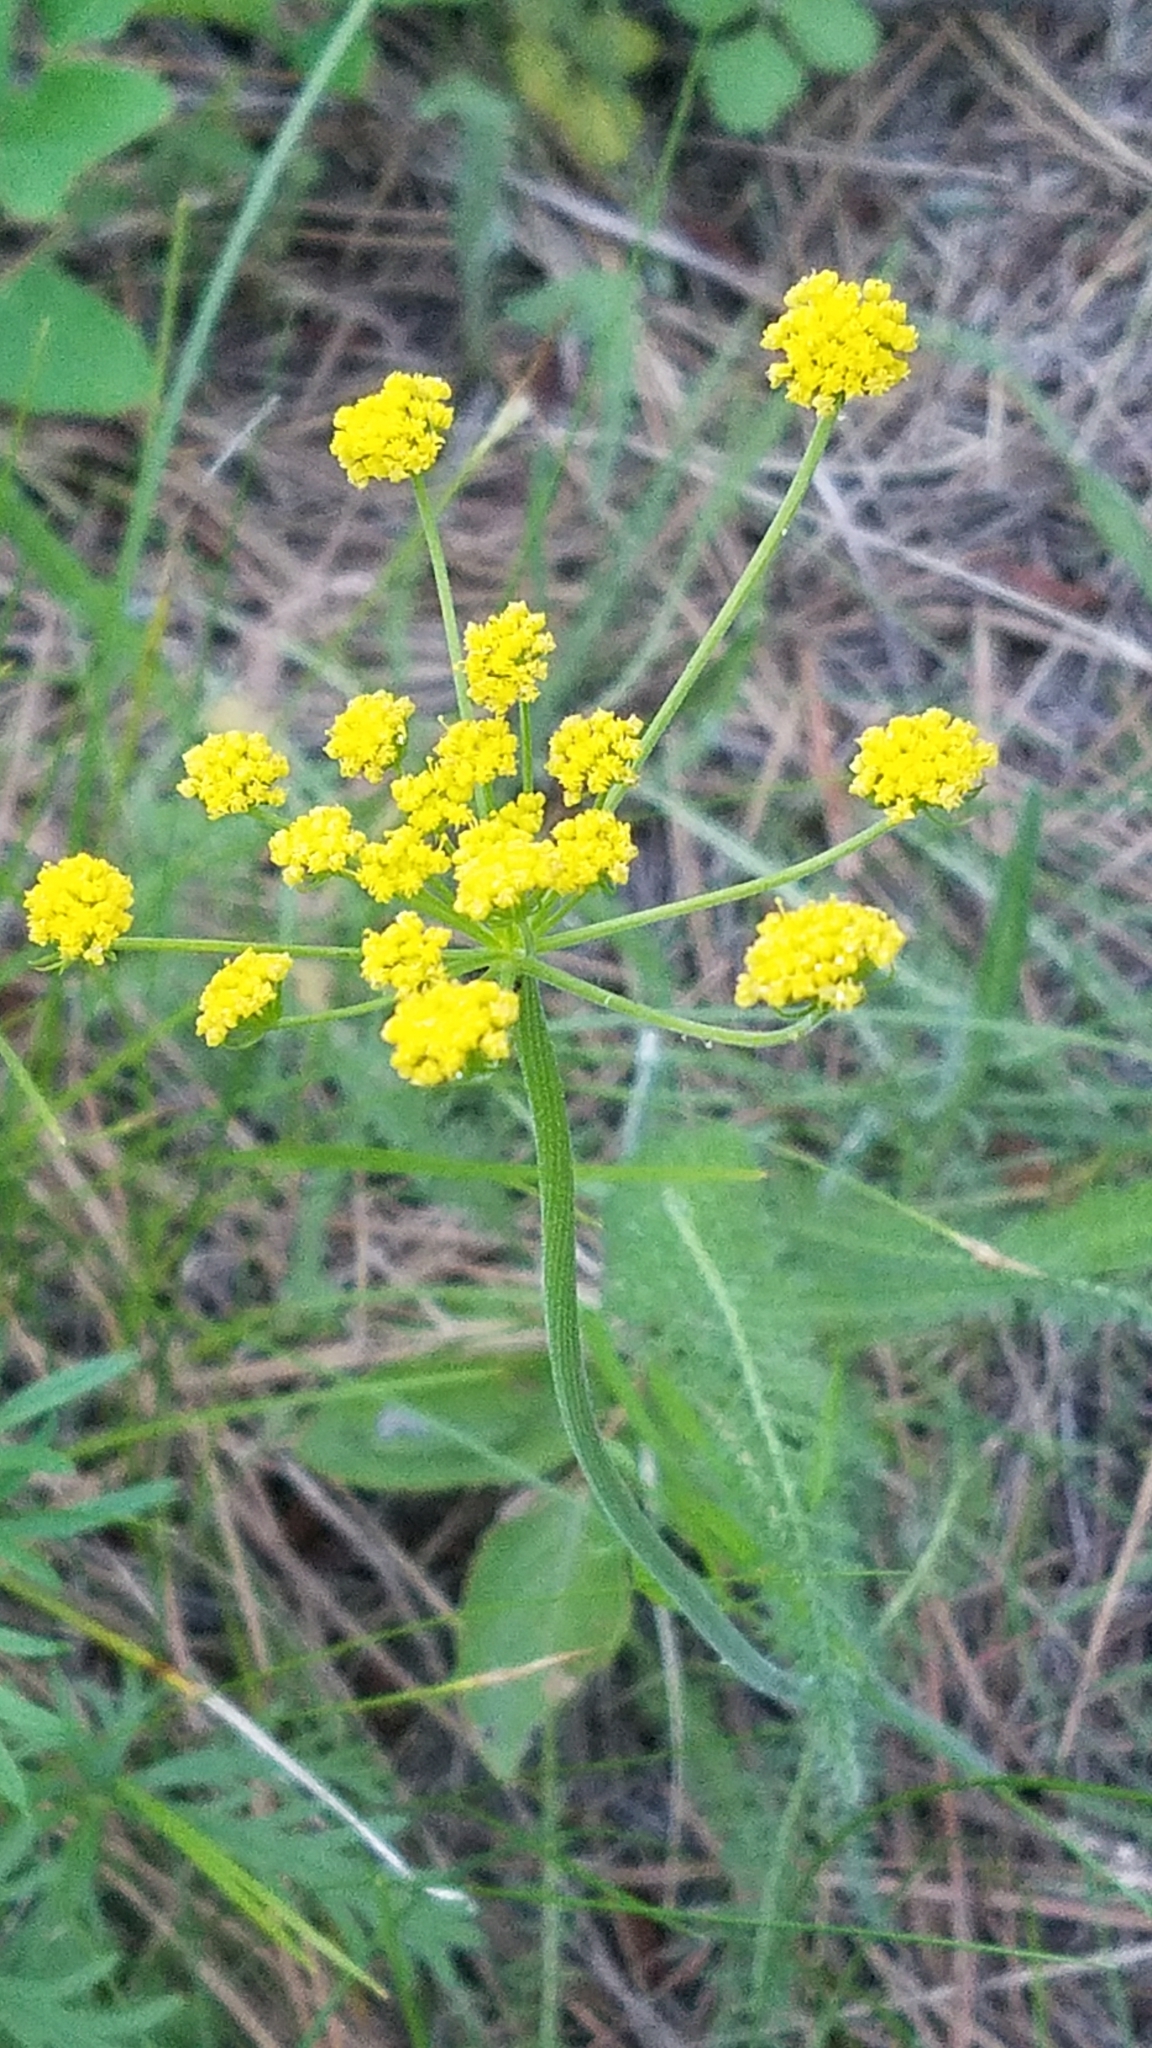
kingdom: Plantae
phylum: Tracheophyta
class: Magnoliopsida
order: Apiales
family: Apiaceae
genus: Lomatium
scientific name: Lomatium triternatum
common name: Ternate lomatium
